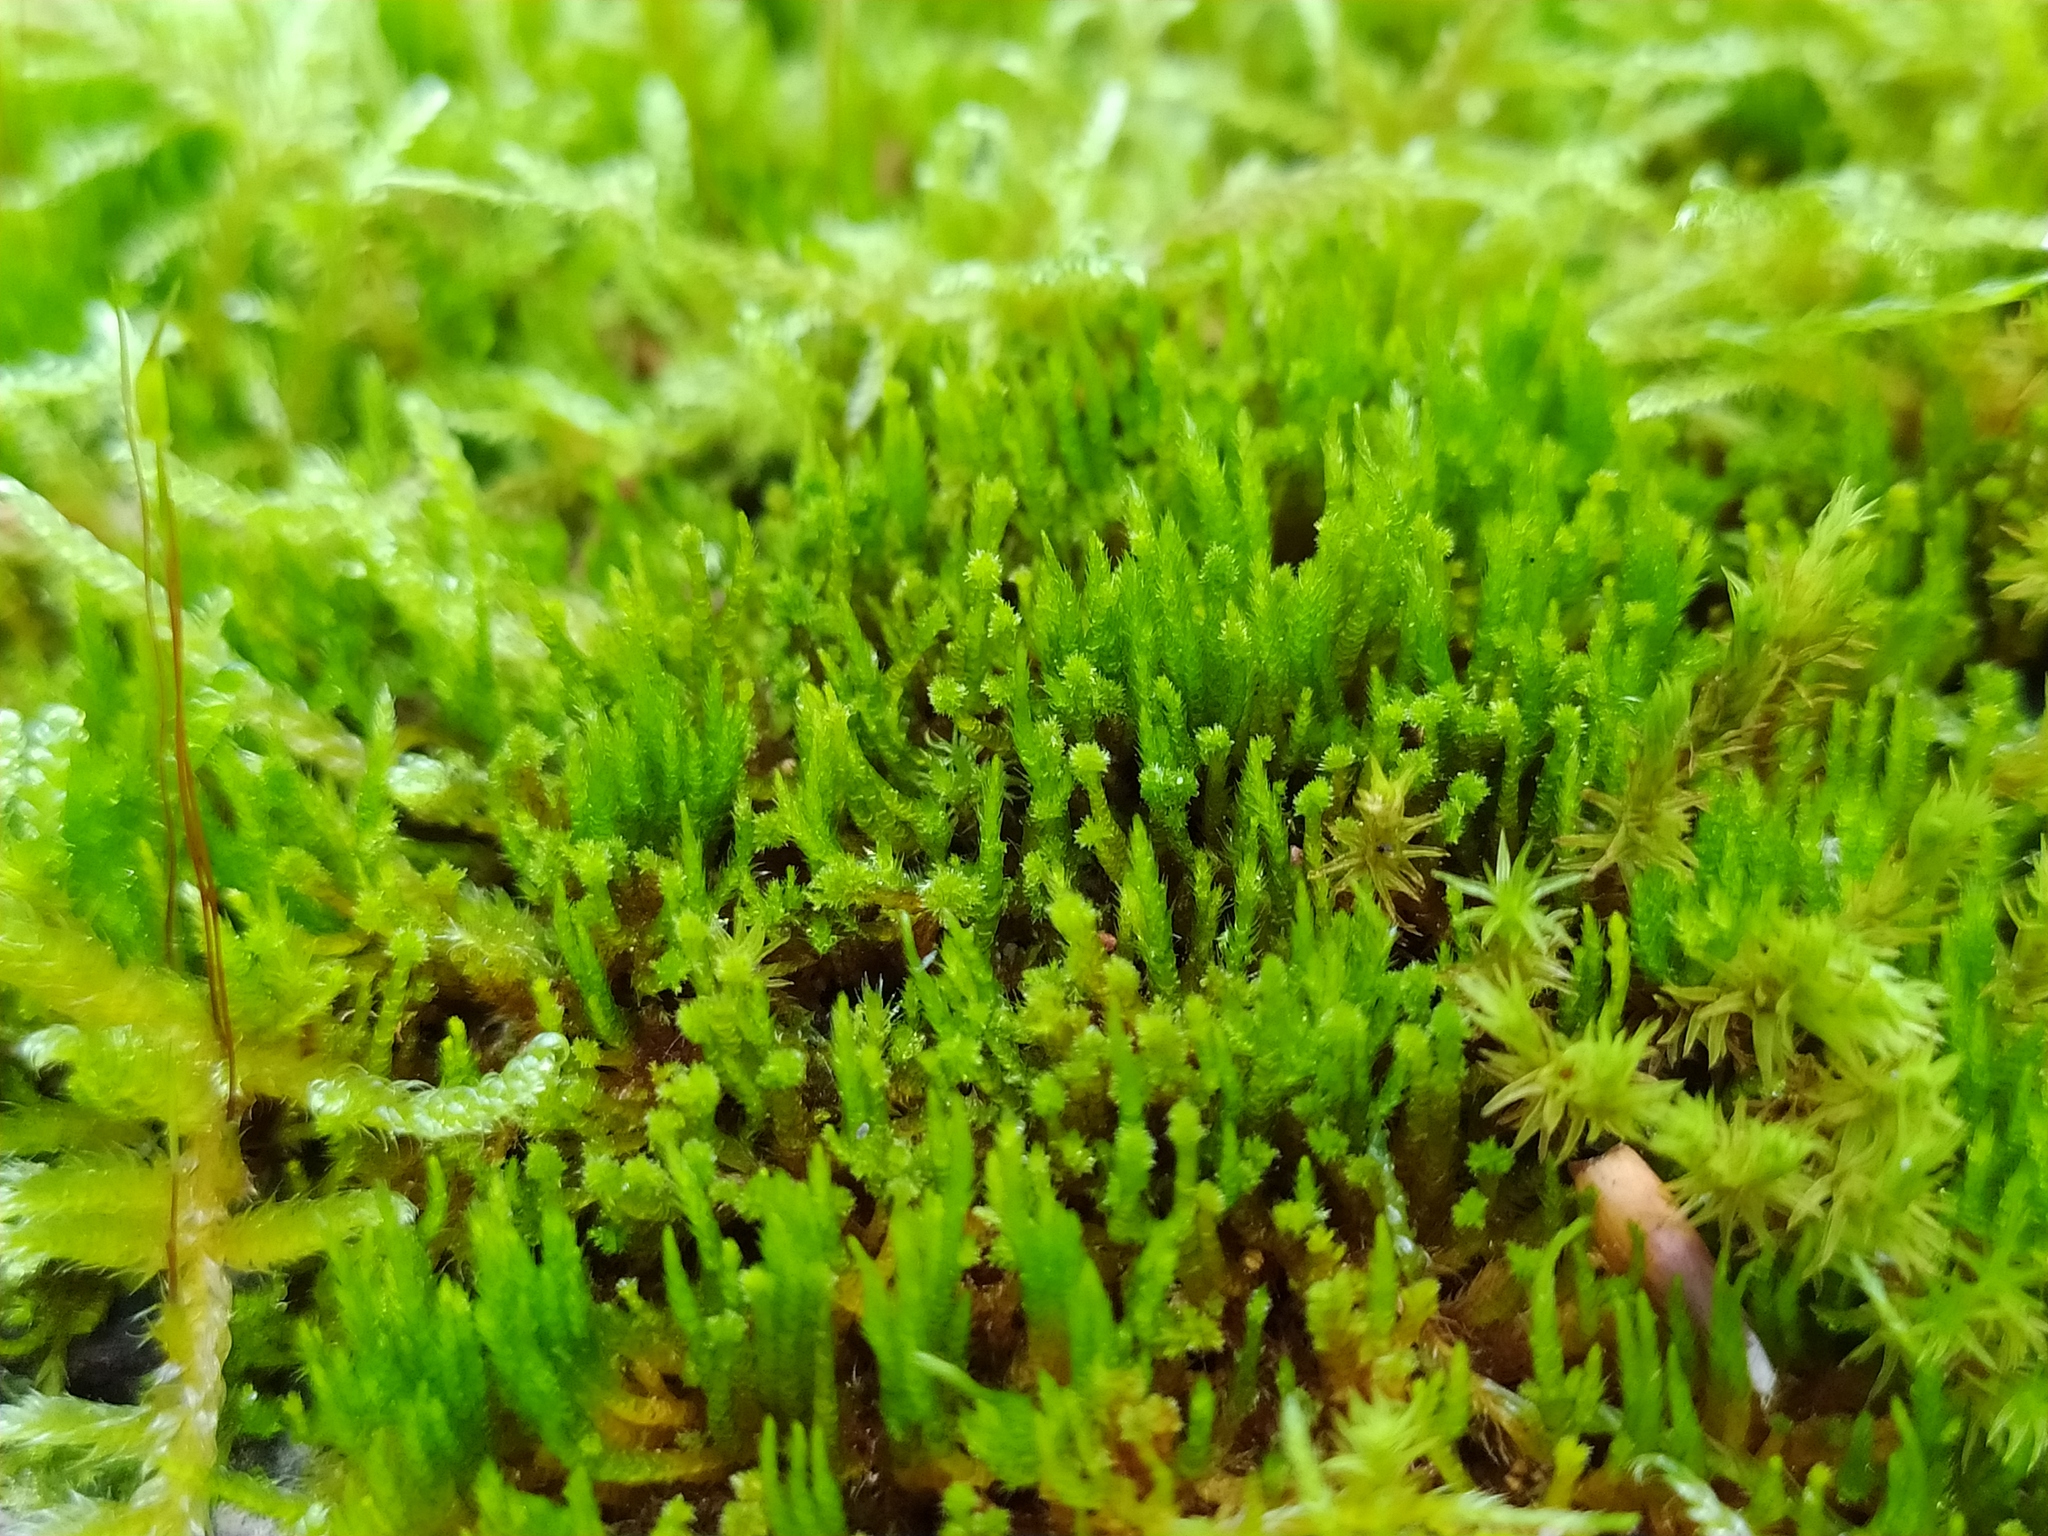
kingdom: Plantae
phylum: Bryophyta
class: Bryopsida
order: Hypnales
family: Pylaisiadelphaceae
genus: Platygyrium
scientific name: Platygyrium repens
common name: Flat-brocade moss
